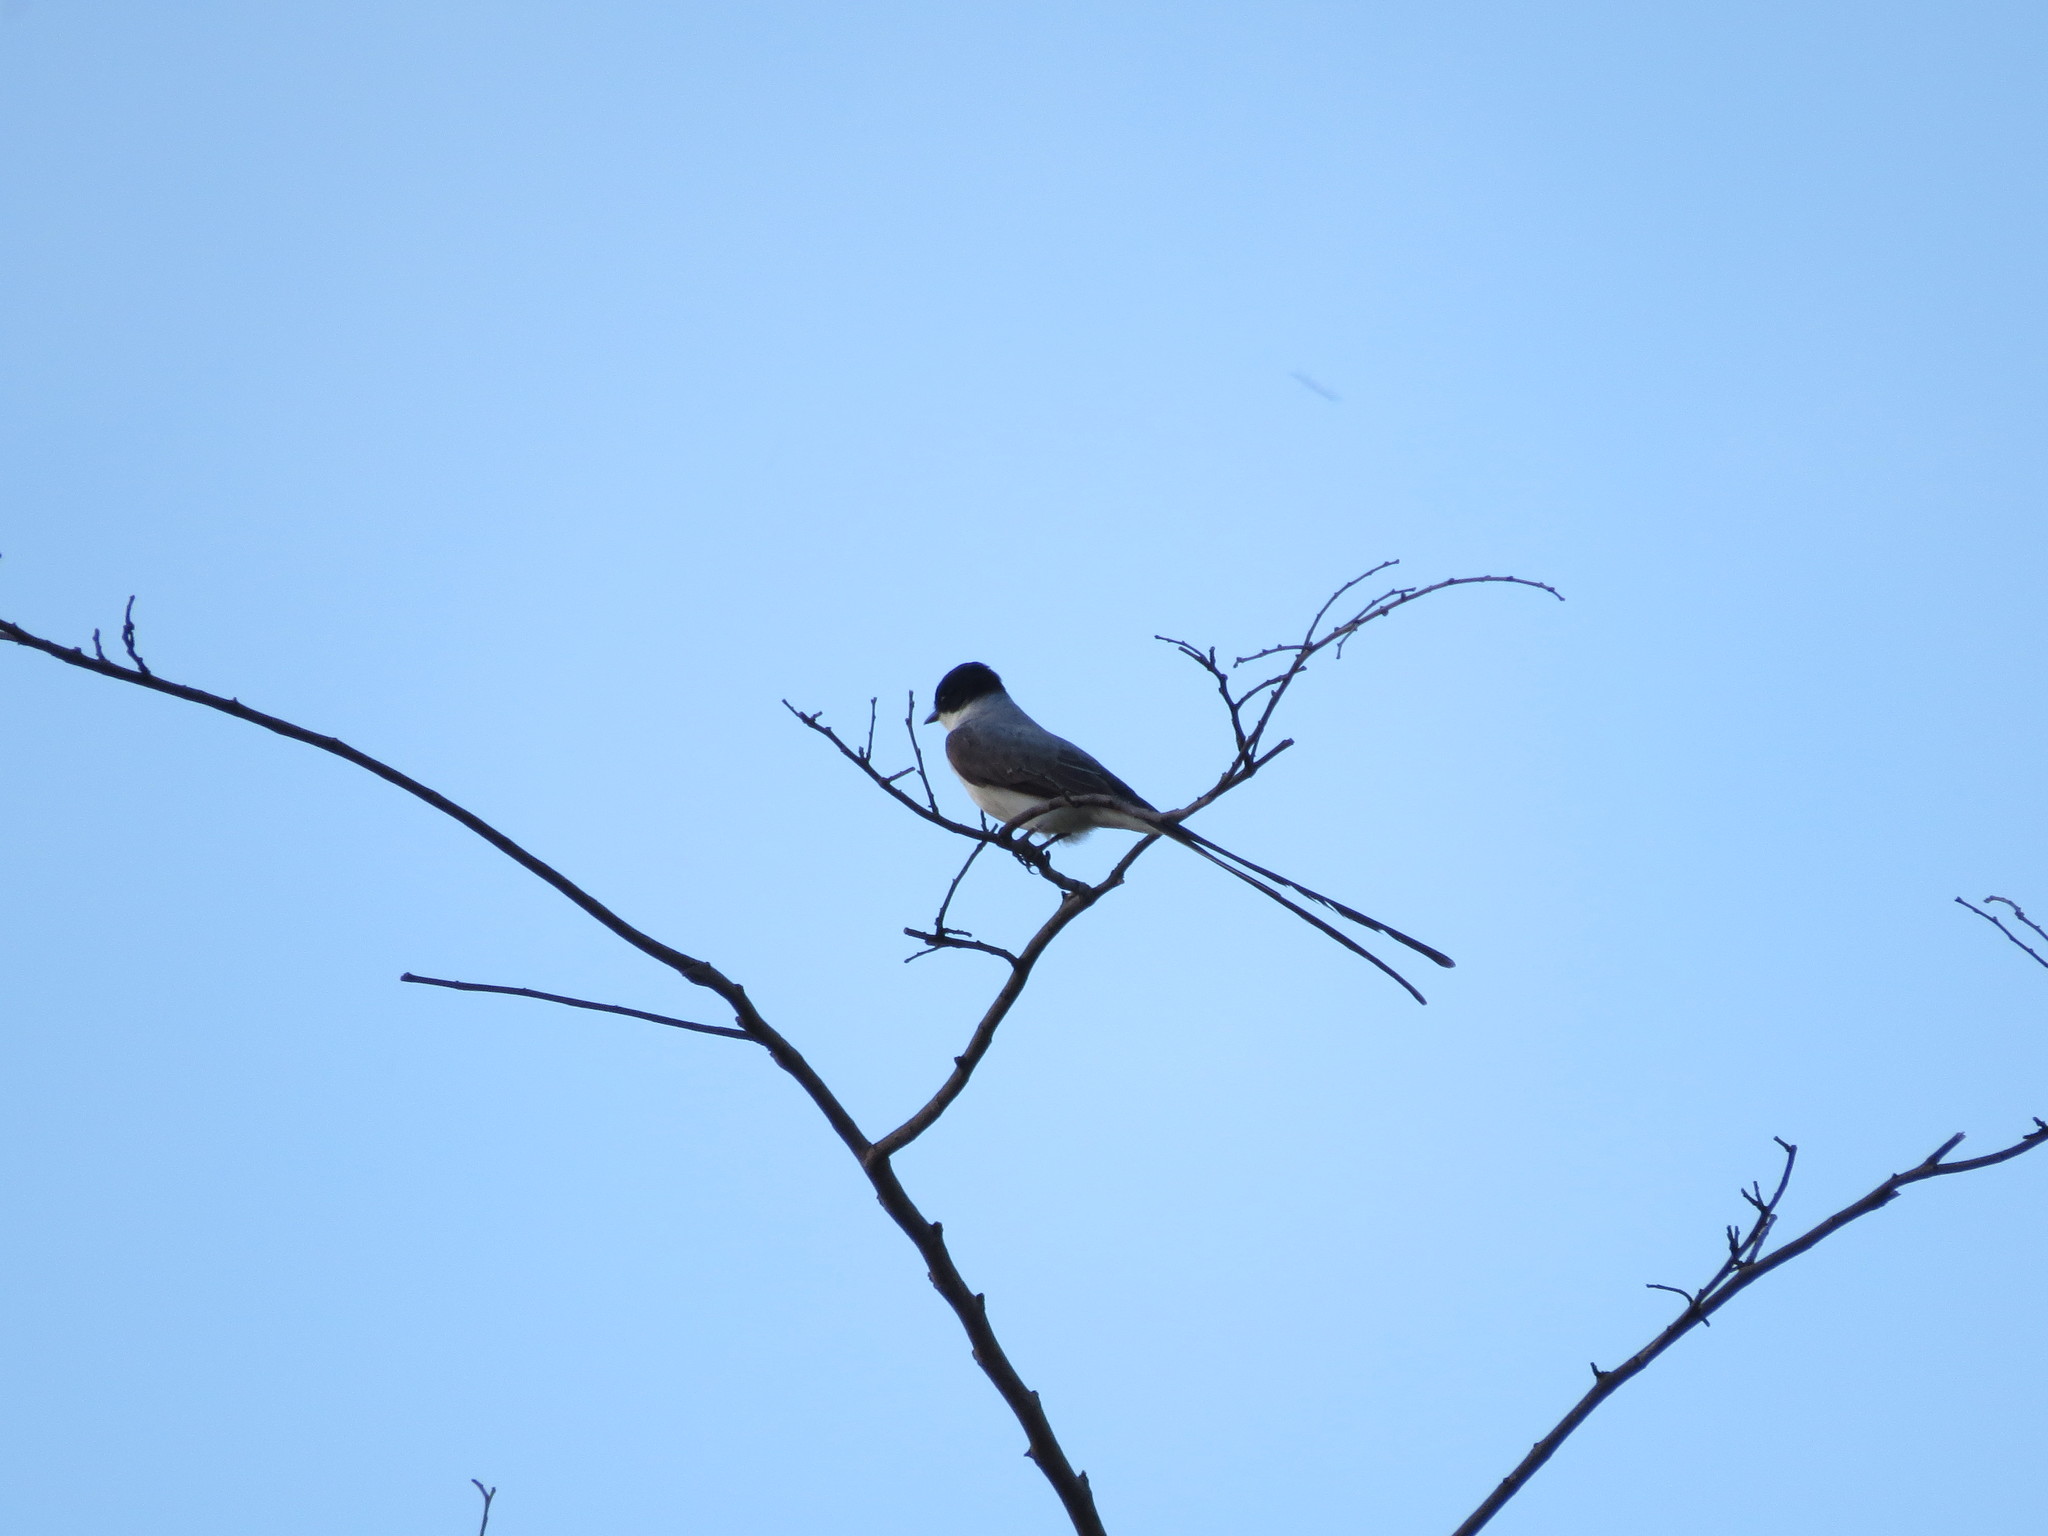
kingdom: Animalia
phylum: Chordata
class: Aves
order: Passeriformes
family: Tyrannidae
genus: Tyrannus
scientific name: Tyrannus savana
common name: Fork-tailed flycatcher
